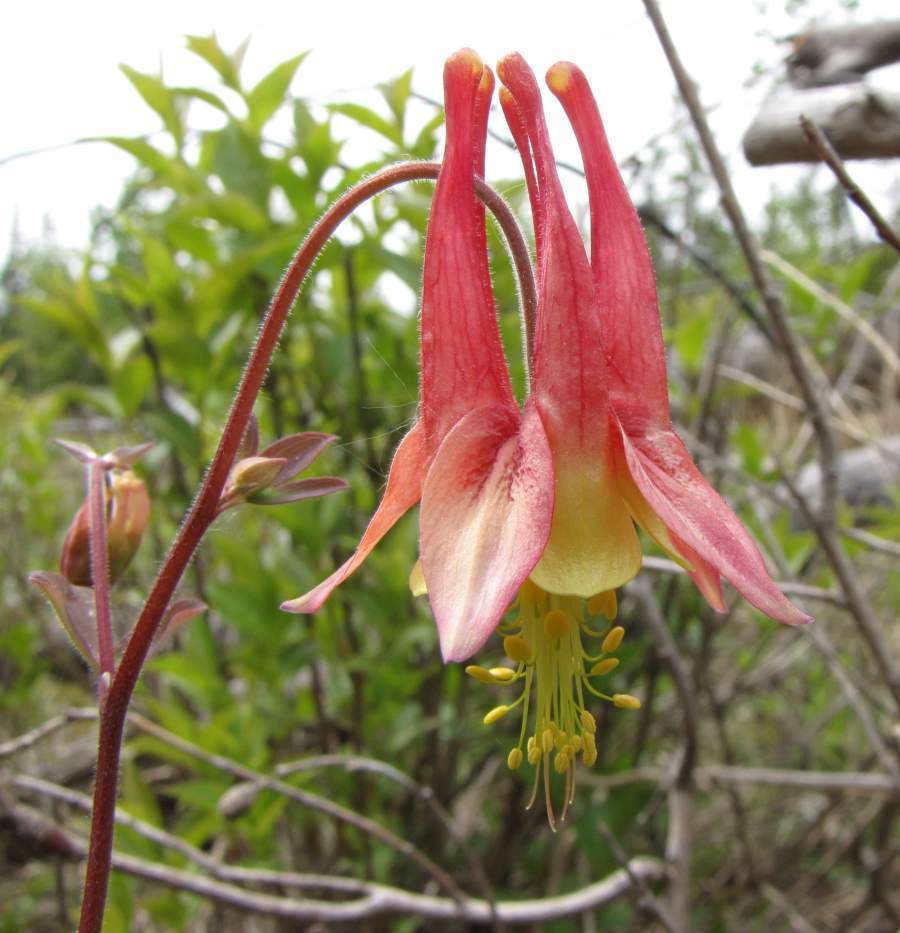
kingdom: Plantae
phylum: Tracheophyta
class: Magnoliopsida
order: Ranunculales
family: Ranunculaceae
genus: Aquilegia
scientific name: Aquilegia canadensis
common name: American columbine
